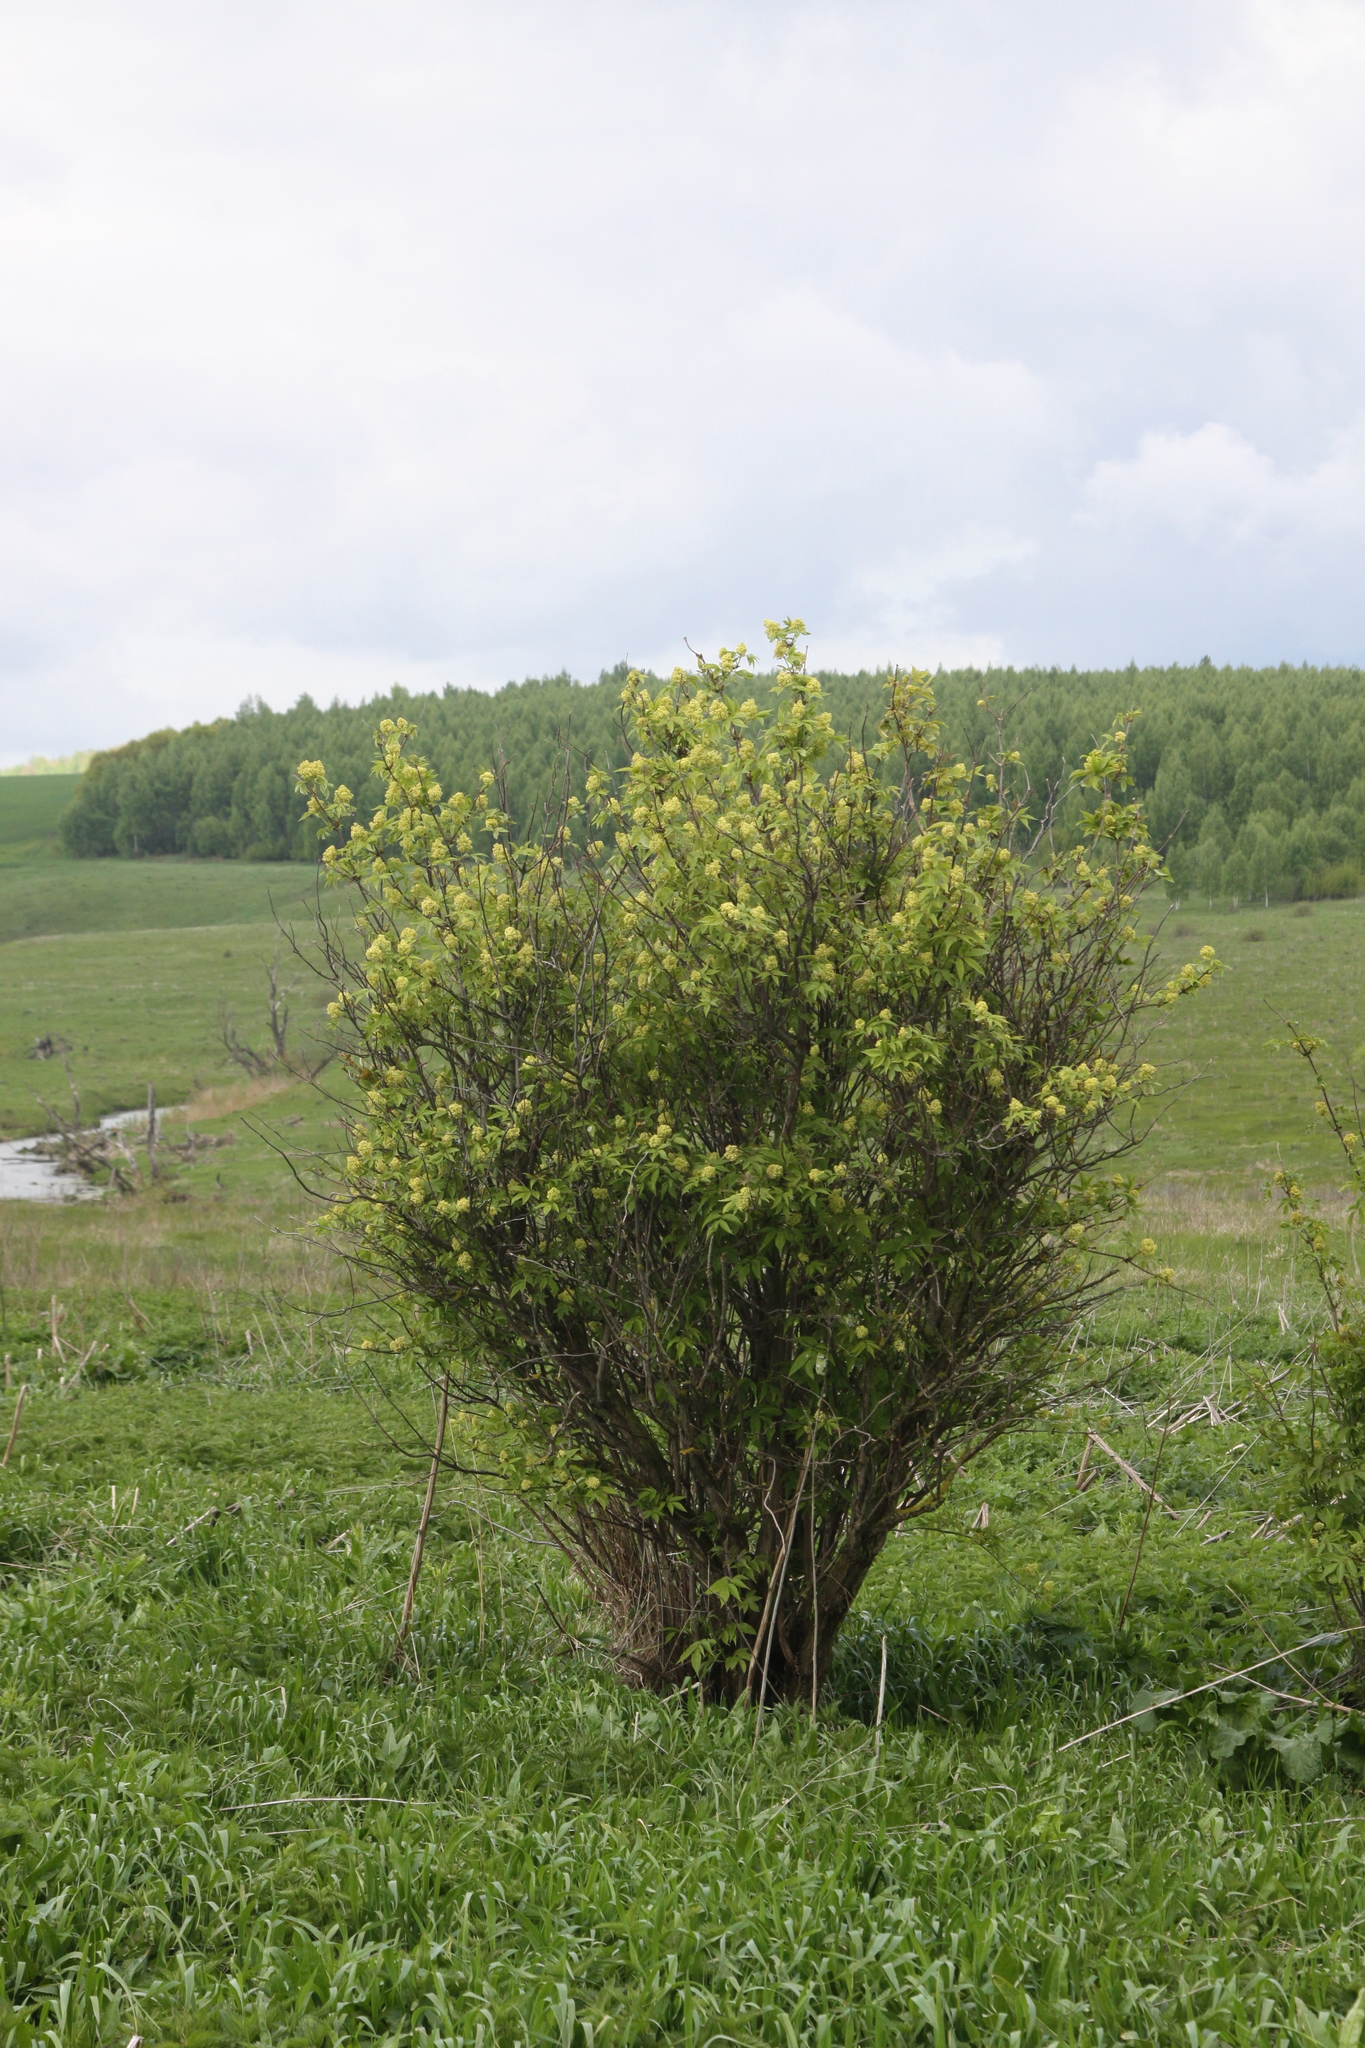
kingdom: Plantae
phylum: Tracheophyta
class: Magnoliopsida
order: Dipsacales
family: Viburnaceae
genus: Sambucus
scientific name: Sambucus racemosa
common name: Red-berried elder
